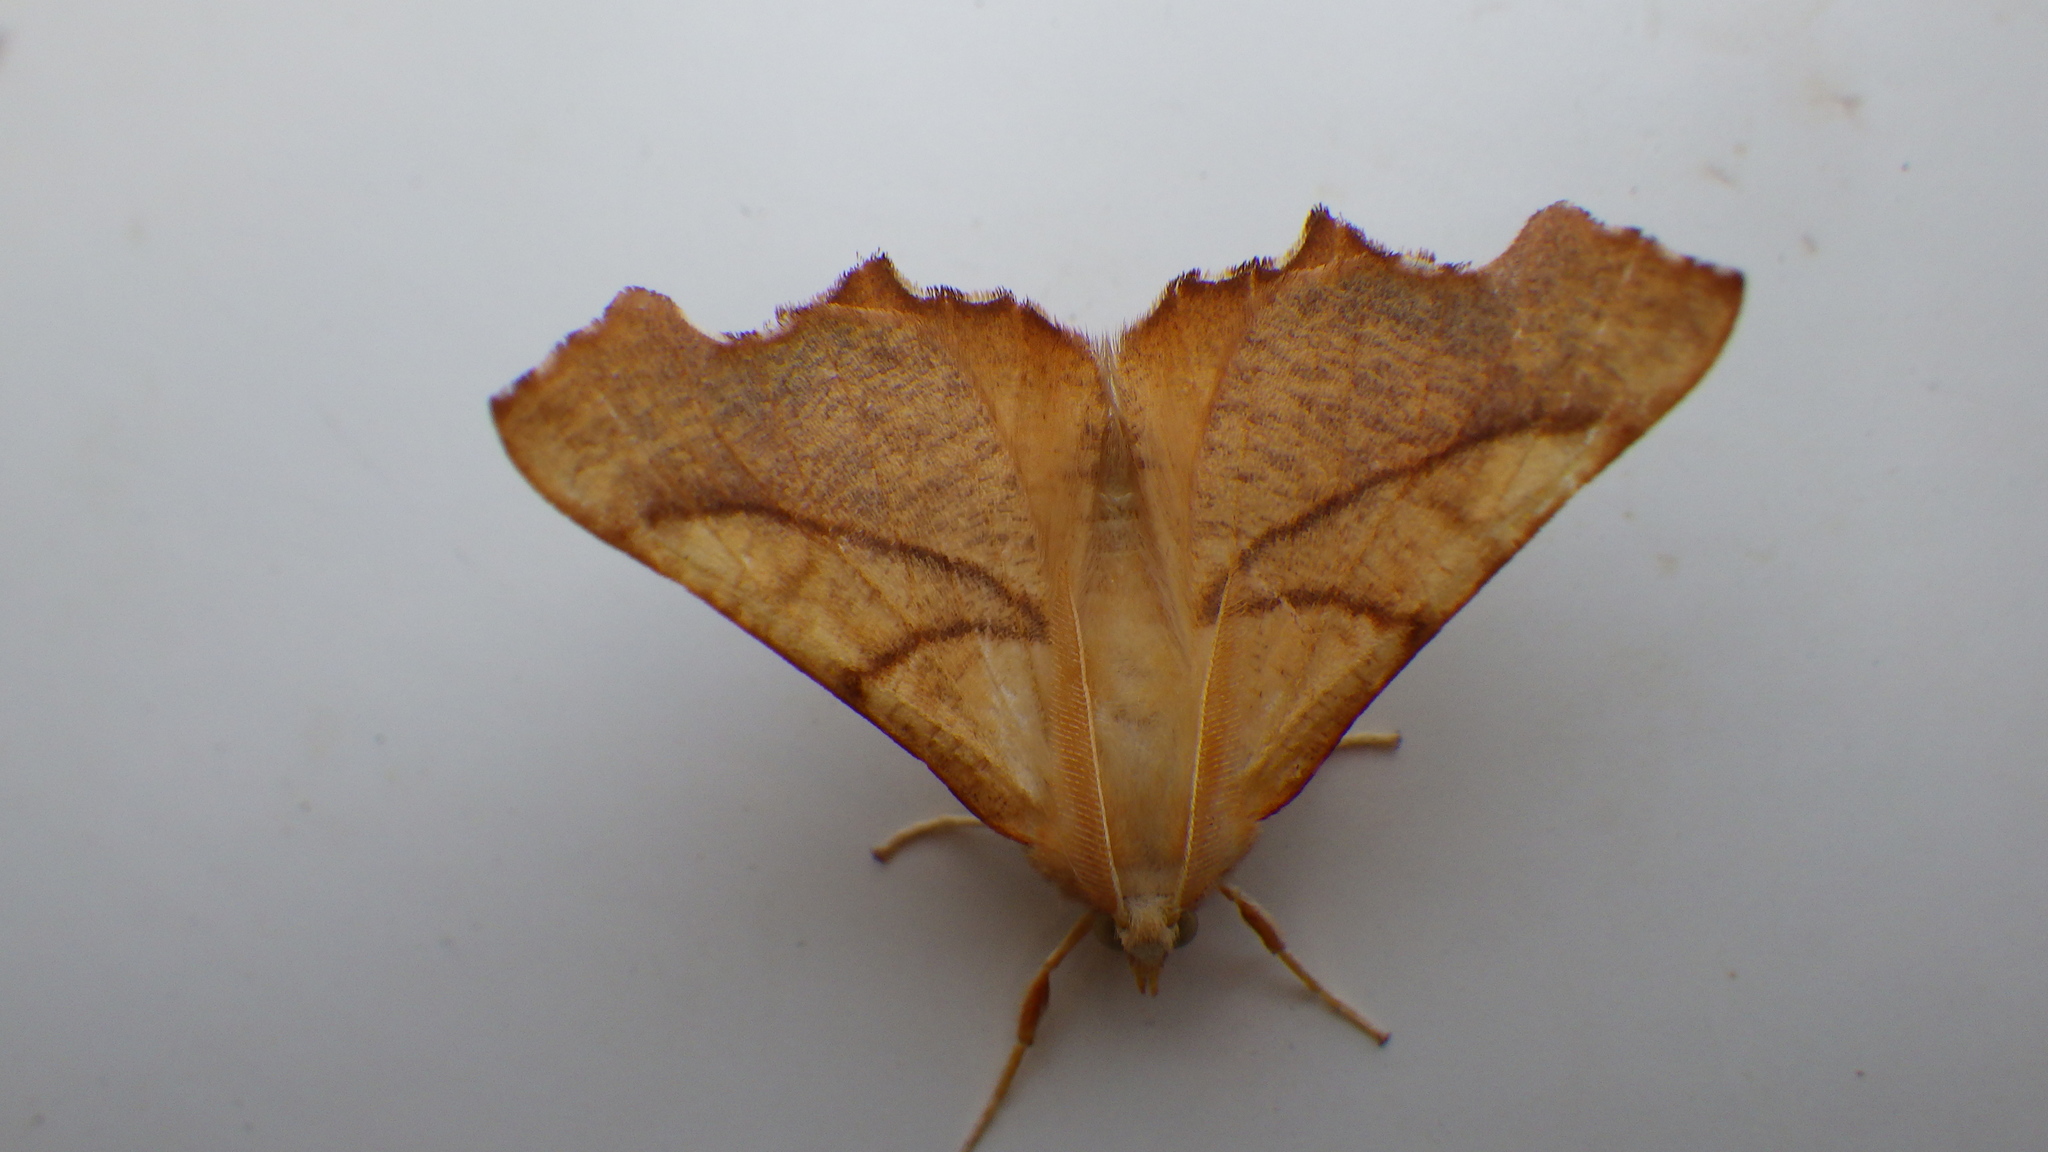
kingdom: Animalia
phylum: Arthropoda
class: Insecta
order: Lepidoptera
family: Geometridae
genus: Ennomos
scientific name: Ennomos fuscantaria
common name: Dusky thorn
